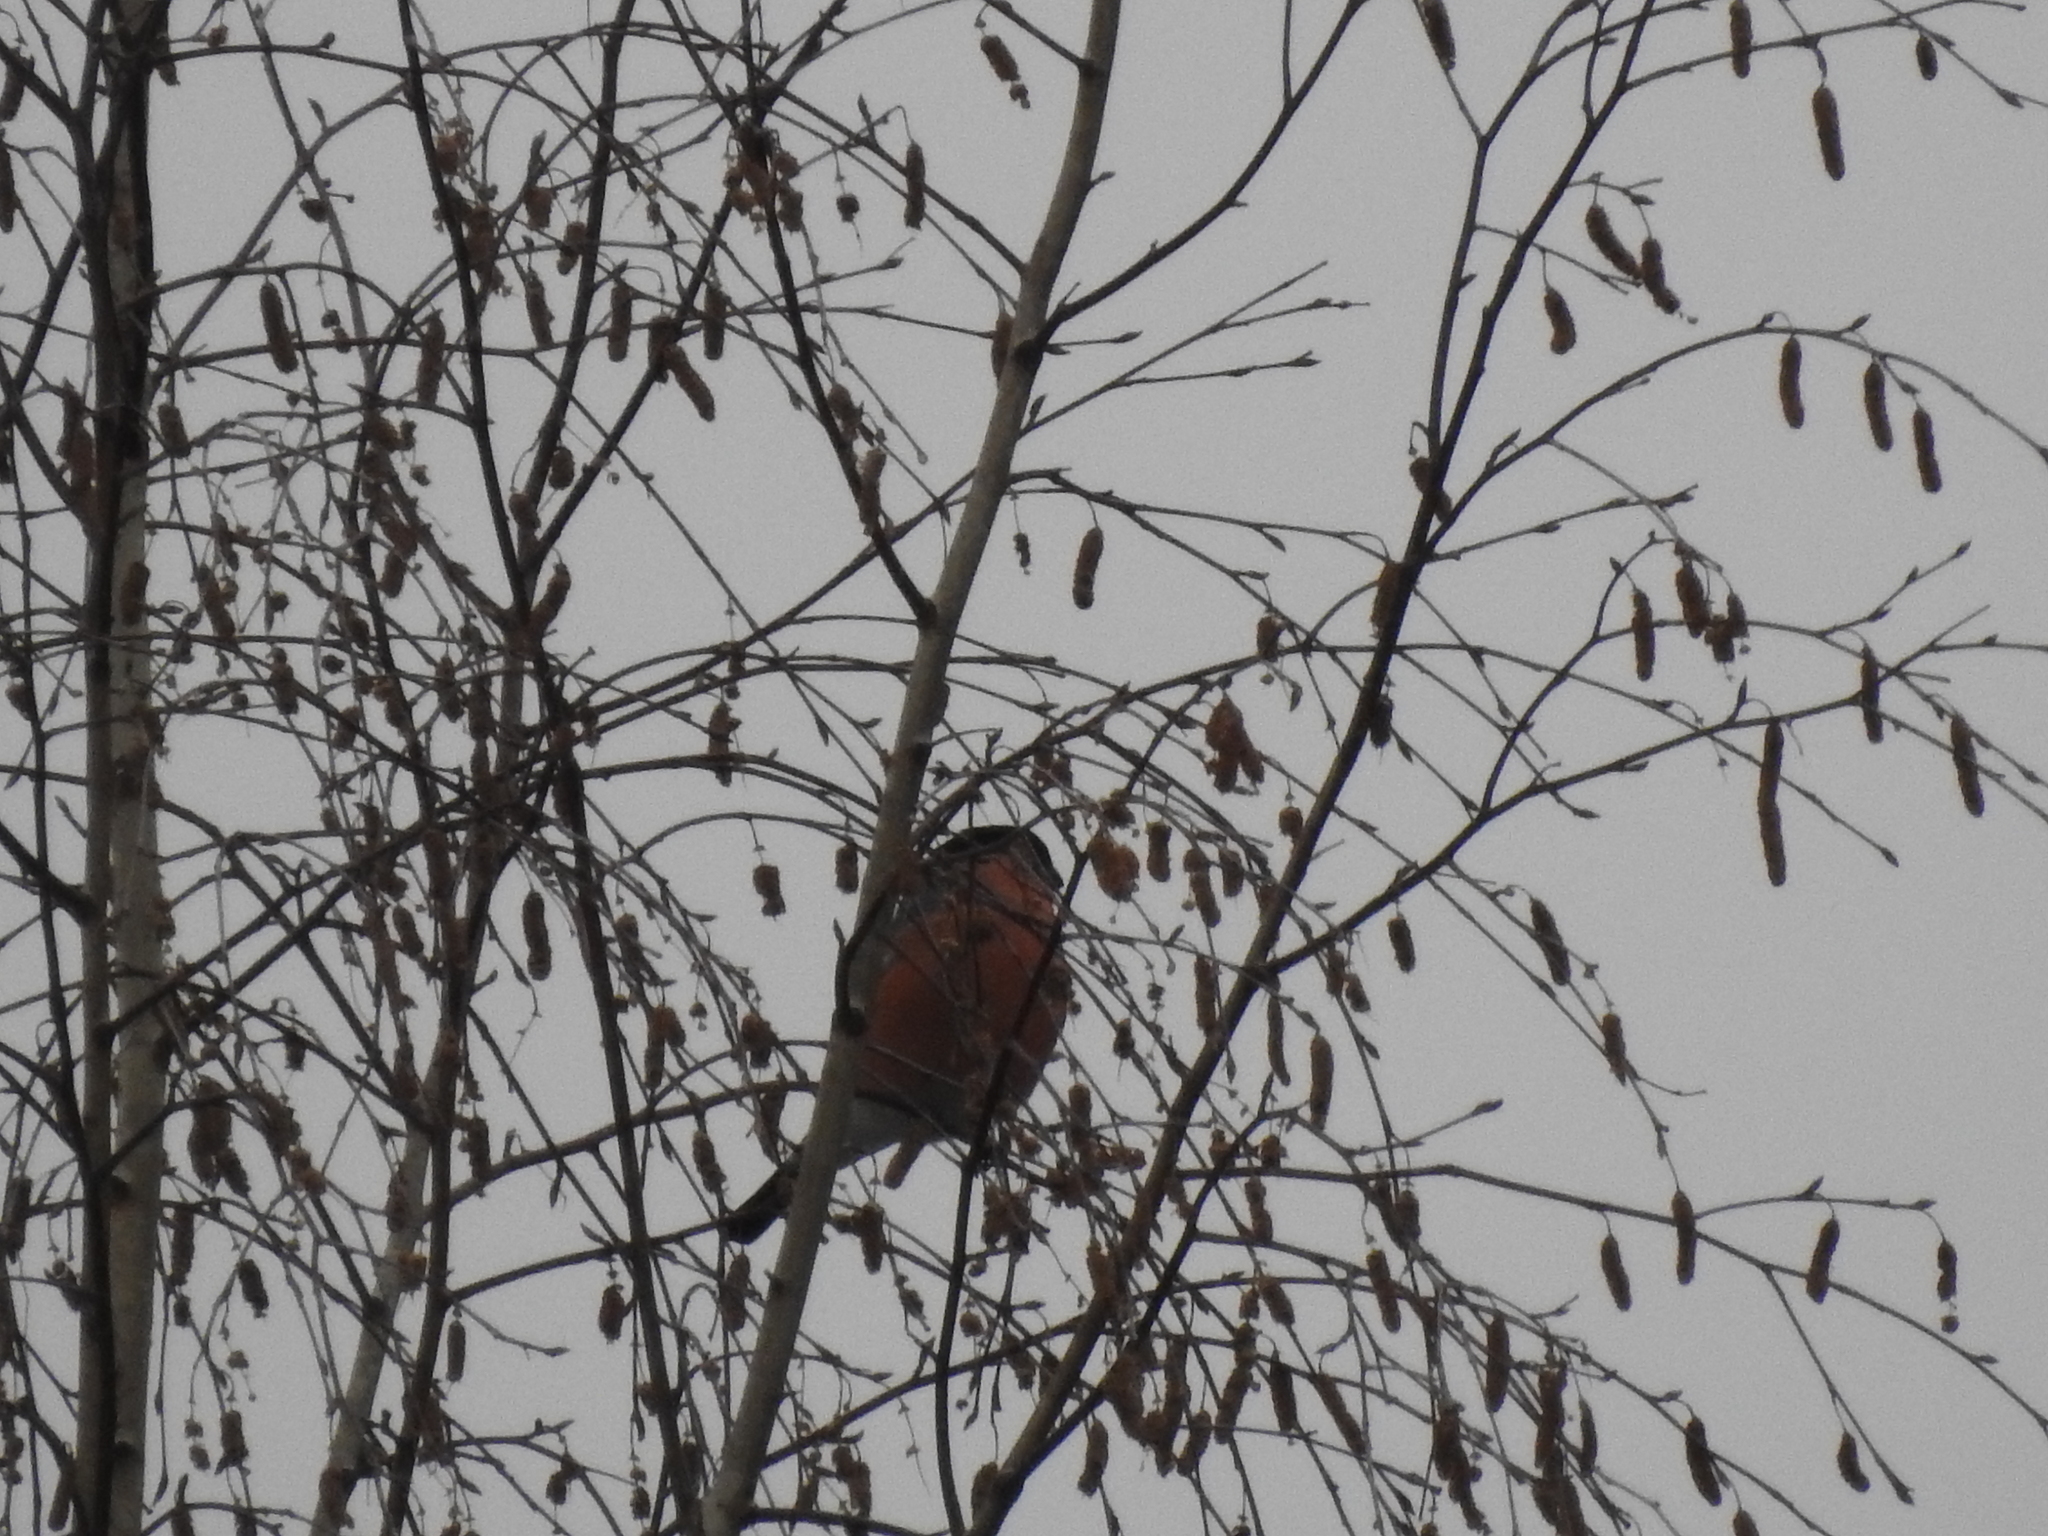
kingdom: Animalia
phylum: Chordata
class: Aves
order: Passeriformes
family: Fringillidae
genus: Pyrrhula
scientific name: Pyrrhula pyrrhula
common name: Eurasian bullfinch
